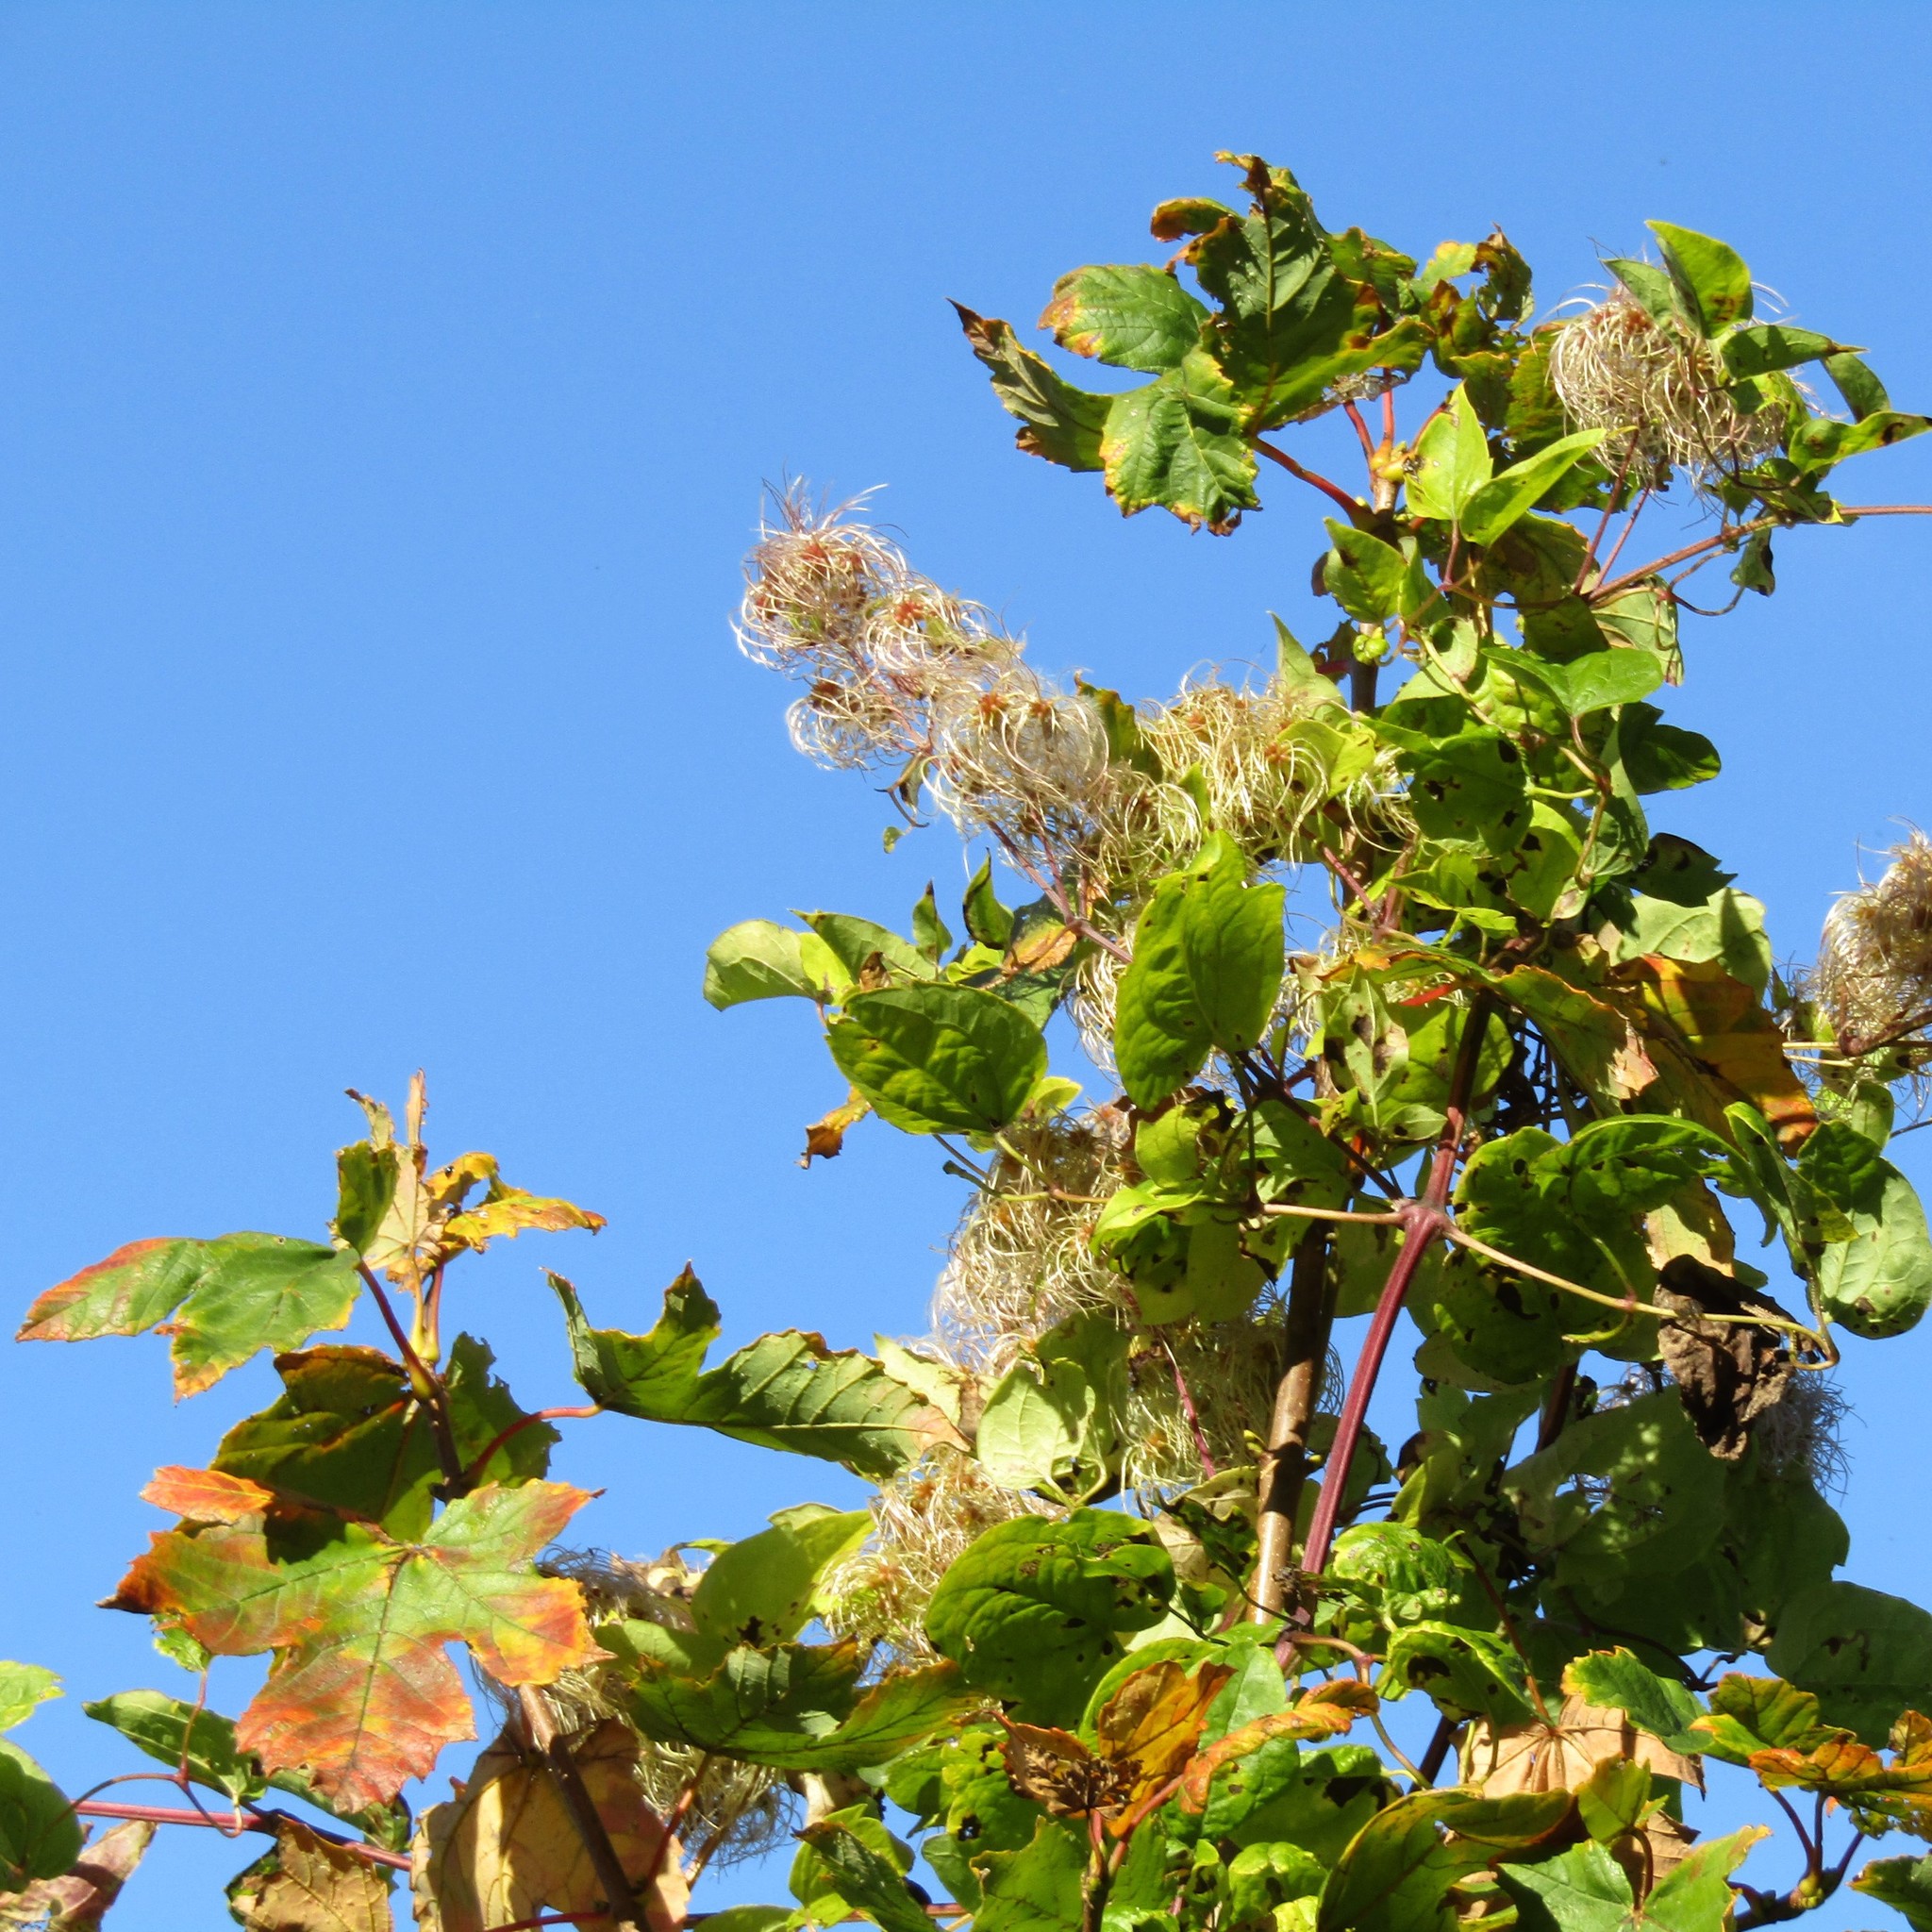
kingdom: Plantae
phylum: Tracheophyta
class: Magnoliopsida
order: Sapindales
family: Sapindaceae
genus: Acer
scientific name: Acer pseudoplatanus
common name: Sycamore
